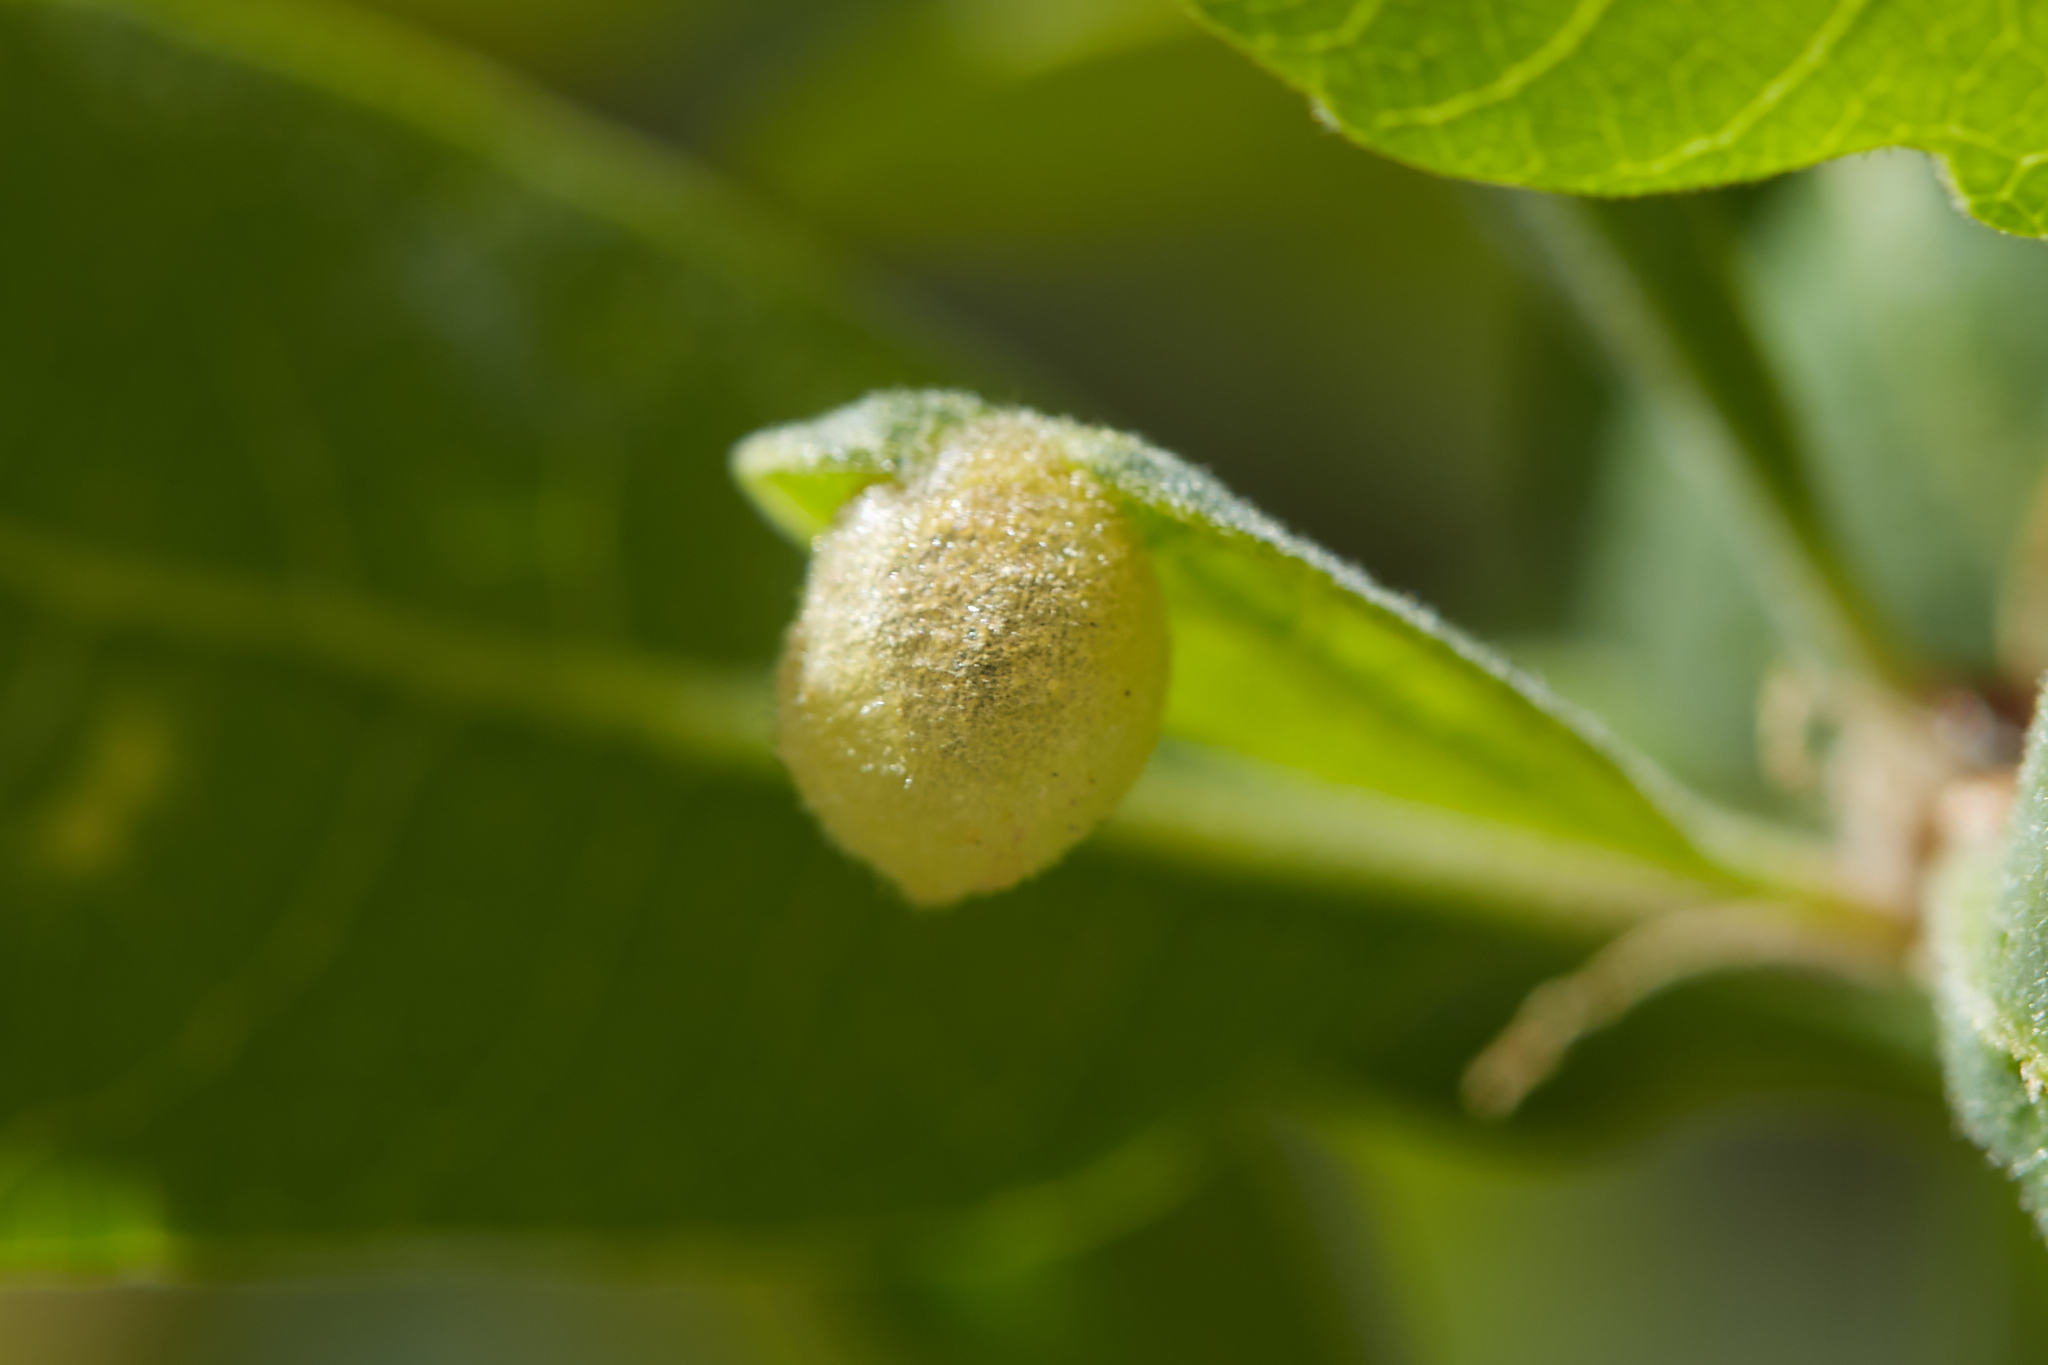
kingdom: Animalia
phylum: Arthropoda
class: Insecta
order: Hymenoptera
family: Cynipidae
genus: Andricus
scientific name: Andricus
